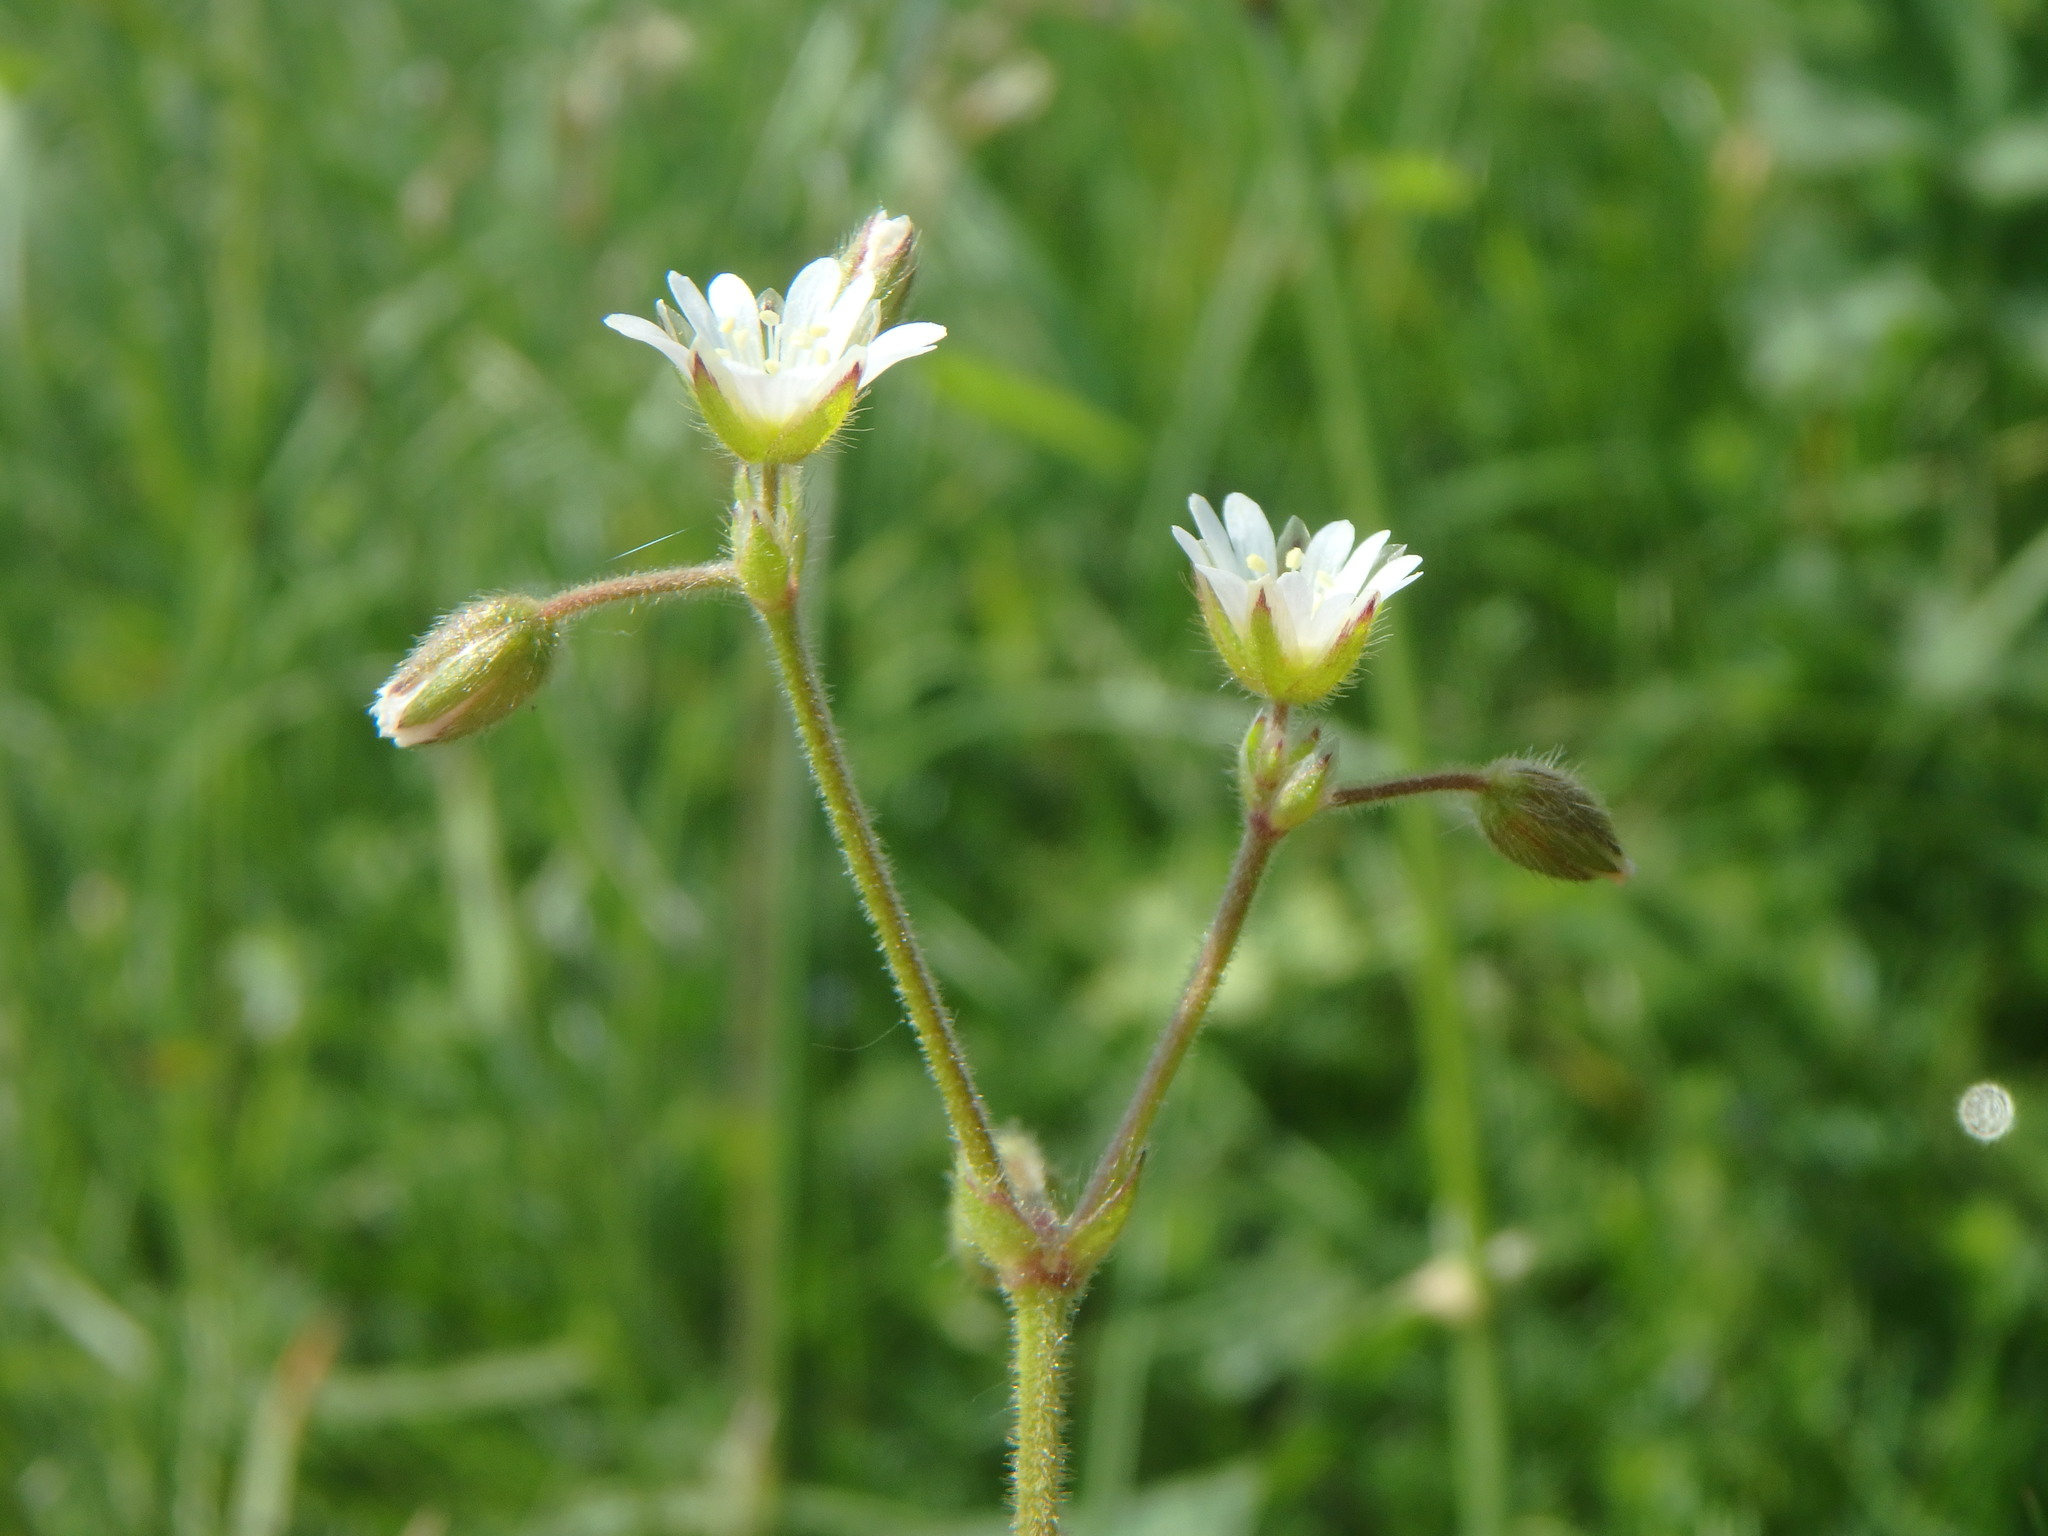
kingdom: Plantae
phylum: Tracheophyta
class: Magnoliopsida
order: Caryophyllales
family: Caryophyllaceae
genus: Cerastium
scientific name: Cerastium fontanum
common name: Common mouse-ear
